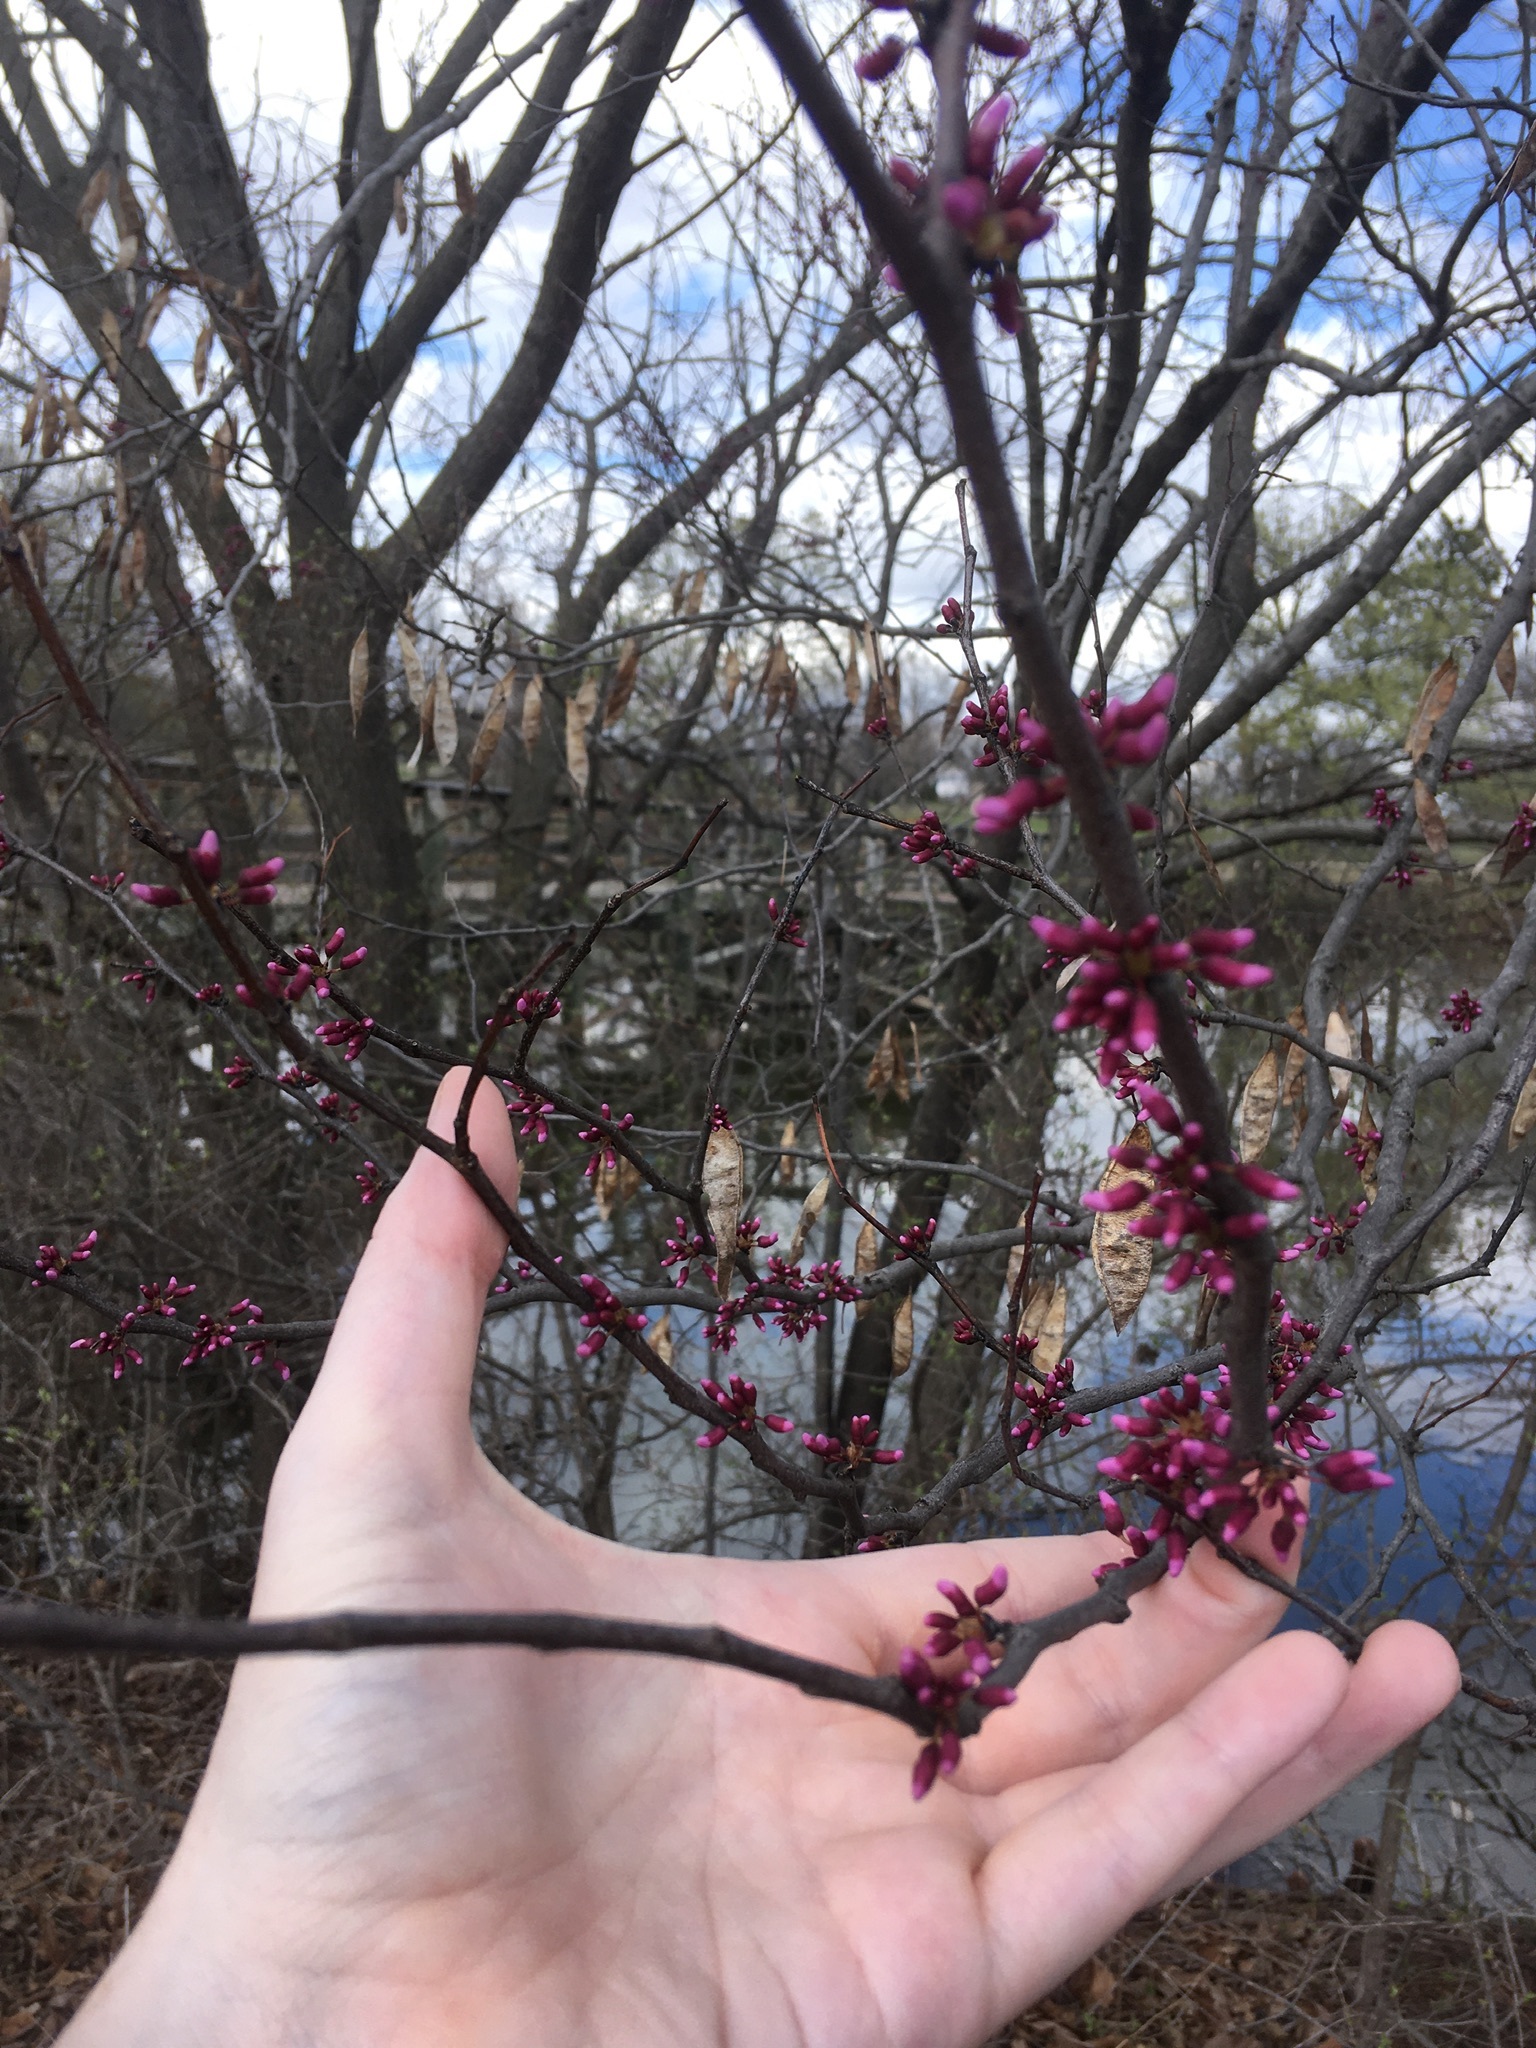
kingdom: Plantae
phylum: Tracheophyta
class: Magnoliopsida
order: Fabales
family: Fabaceae
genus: Cercis
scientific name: Cercis canadensis
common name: Eastern redbud
